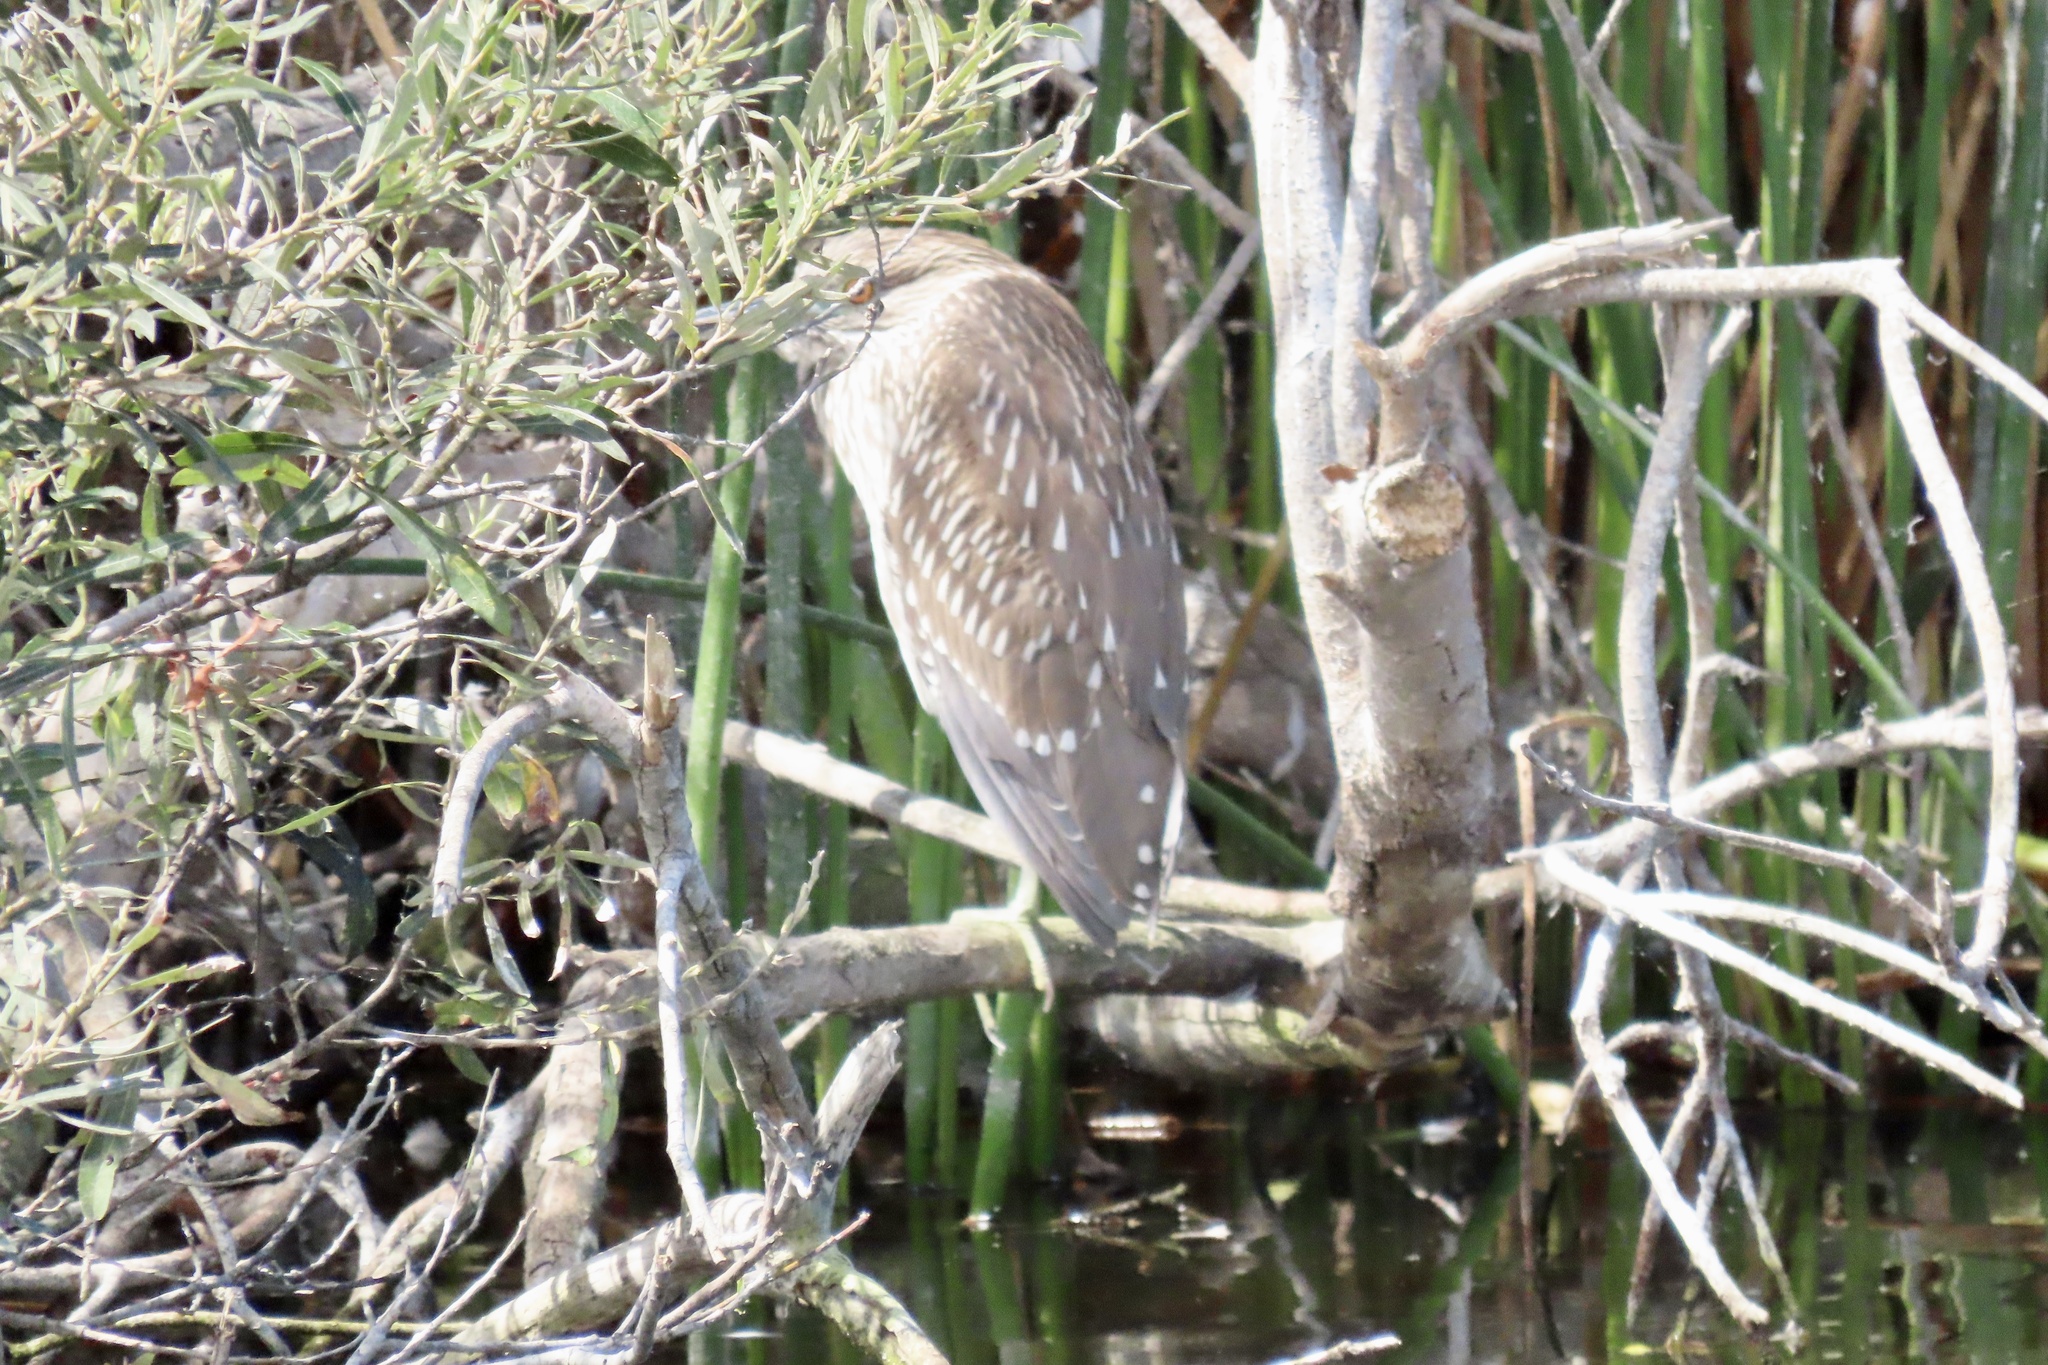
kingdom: Animalia
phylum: Chordata
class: Aves
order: Pelecaniformes
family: Ardeidae
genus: Nycticorax
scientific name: Nycticorax nycticorax
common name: Black-crowned night heron
